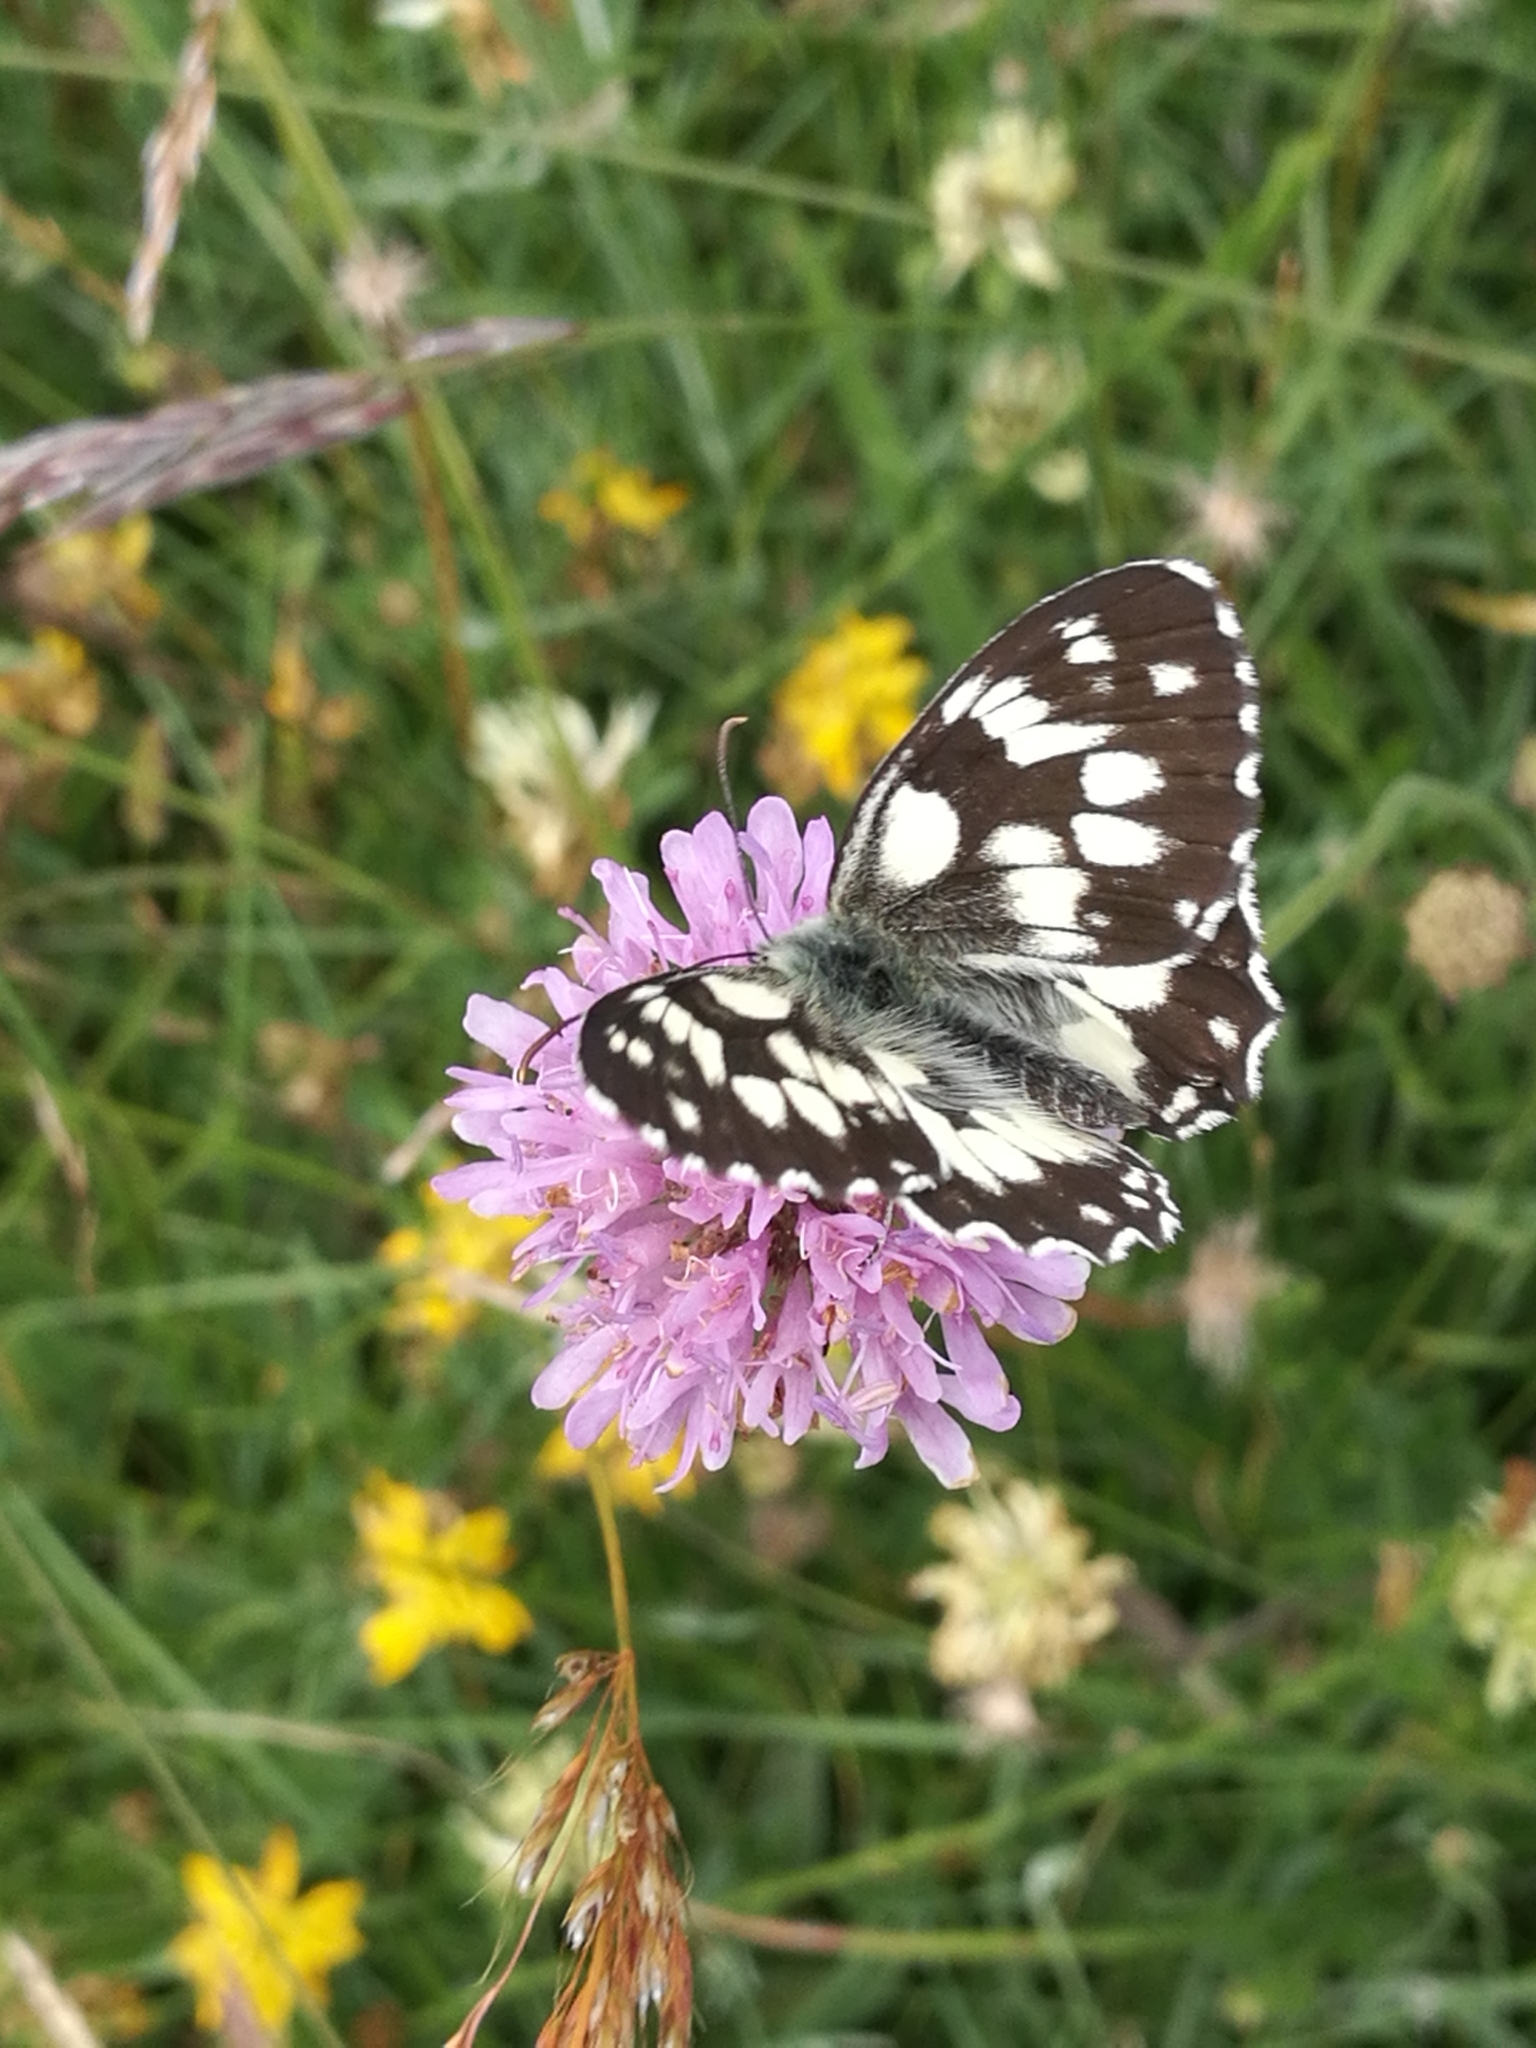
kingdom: Animalia
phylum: Arthropoda
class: Insecta
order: Lepidoptera
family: Nymphalidae
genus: Melanargia
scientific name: Melanargia galathea
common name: Marbled white
